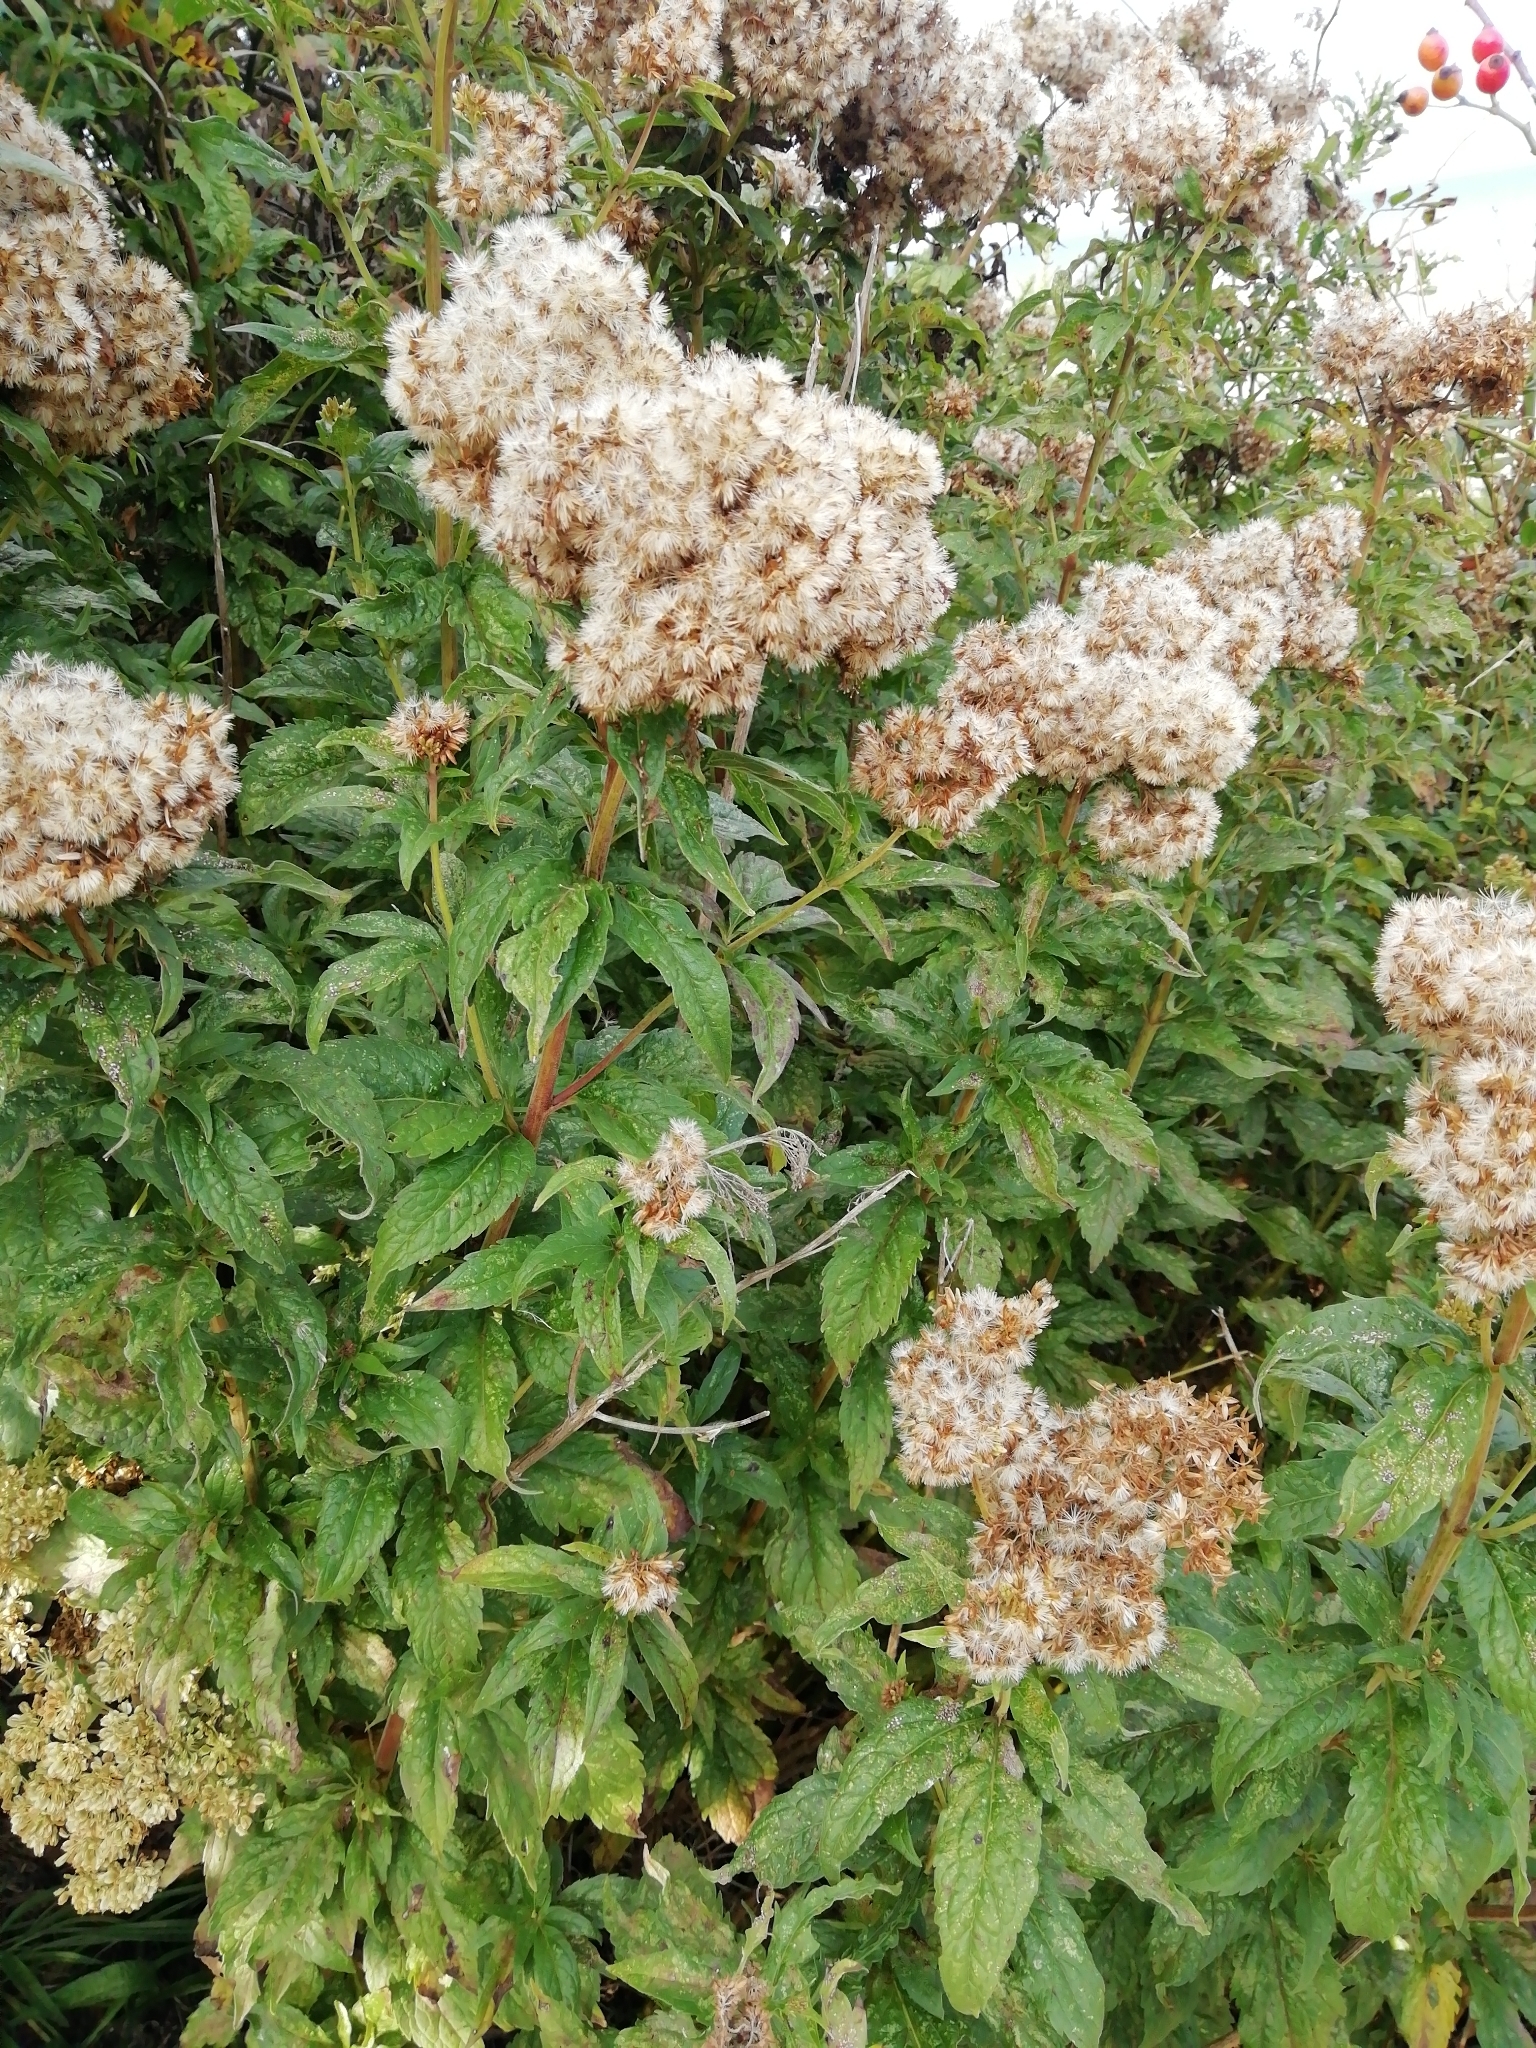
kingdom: Plantae
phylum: Tracheophyta
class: Magnoliopsida
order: Asterales
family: Asteraceae
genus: Eupatorium
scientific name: Eupatorium cannabinum
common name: Hemp-agrimony
